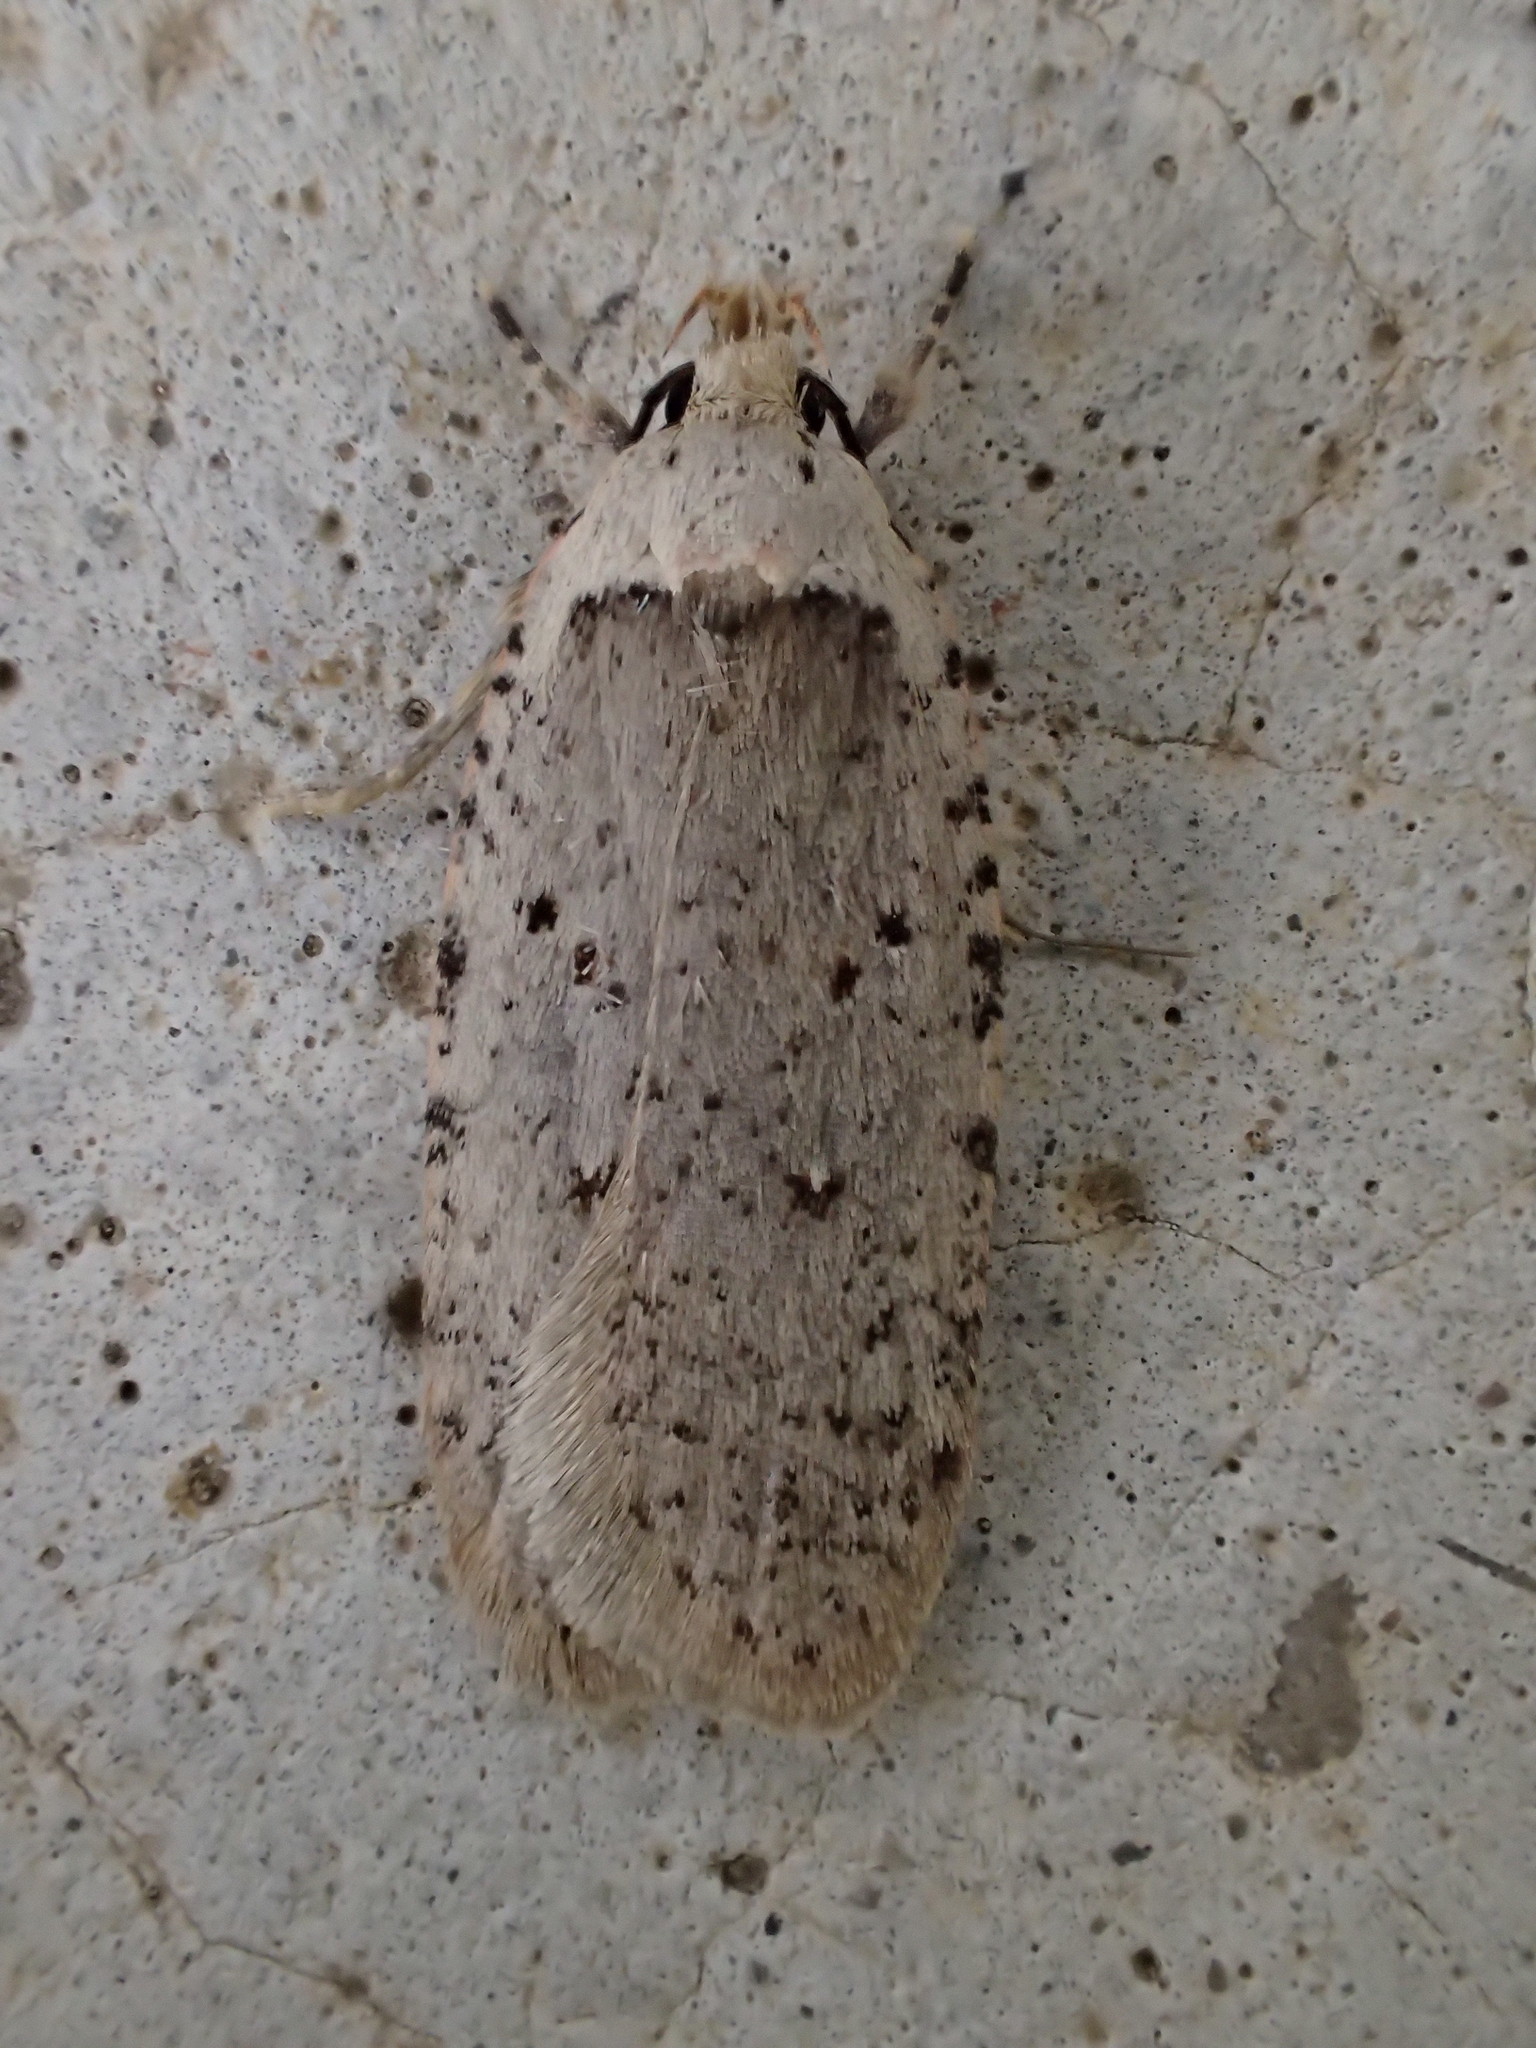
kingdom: Animalia
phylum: Arthropoda
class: Insecta
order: Lepidoptera
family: Depressariidae
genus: Agonopterix
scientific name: Agonopterix adspersella
